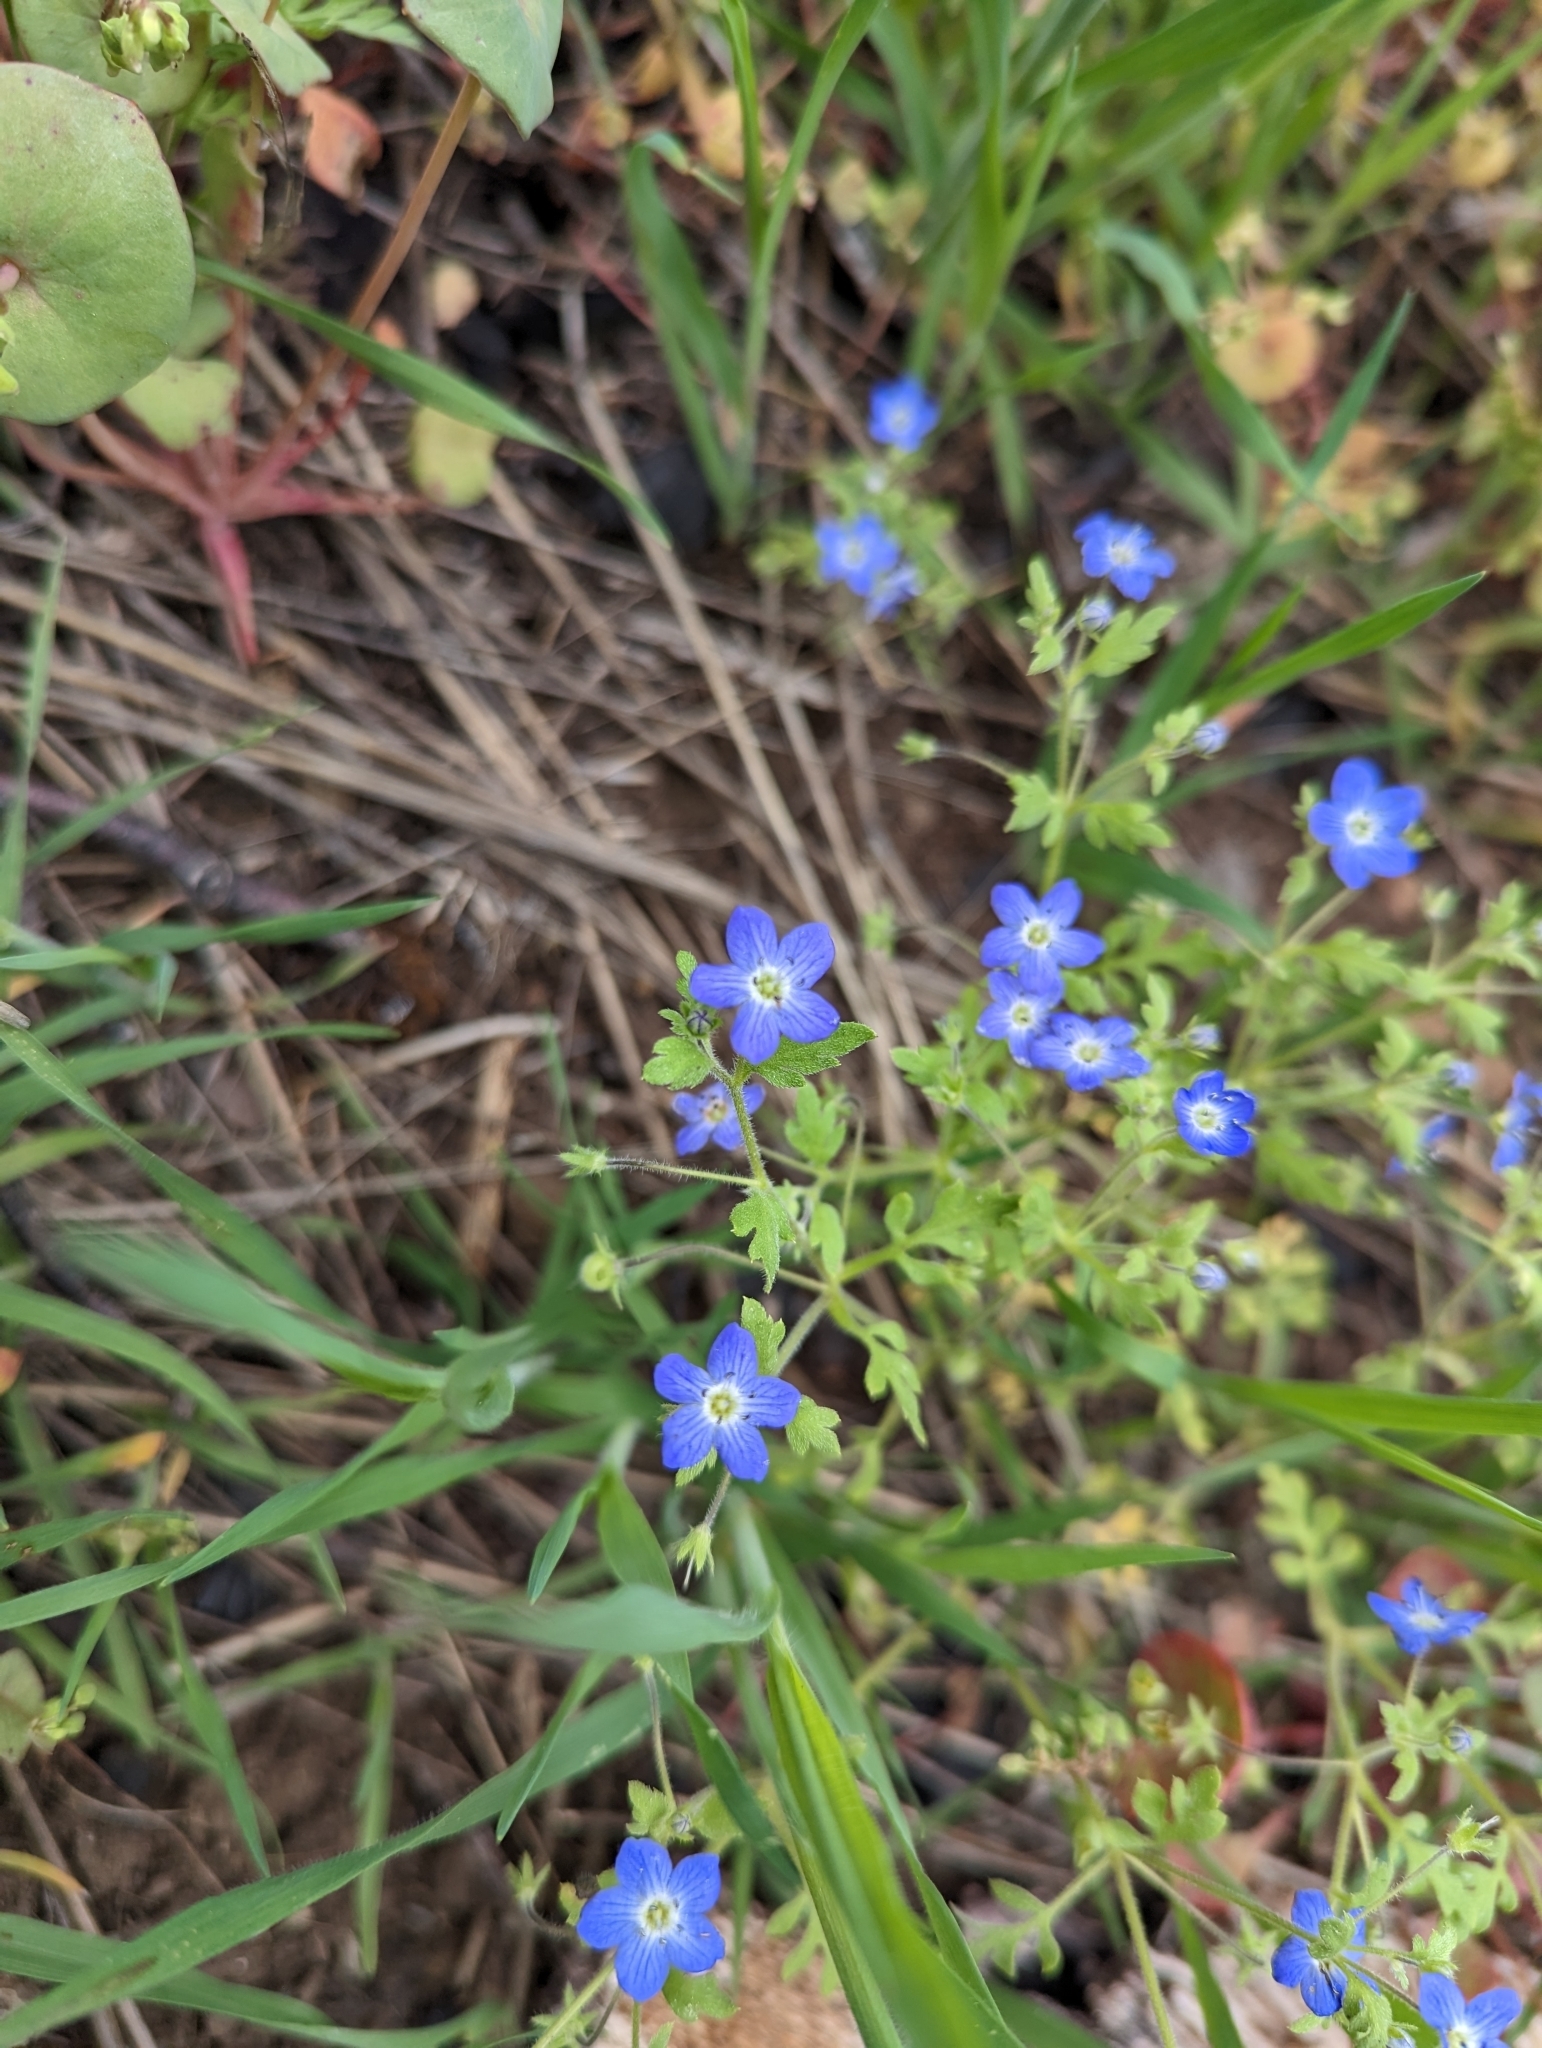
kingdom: Plantae
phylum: Tracheophyta
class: Magnoliopsida
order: Boraginales
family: Hydrophyllaceae
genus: Nemophila
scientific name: Nemophila menziesii
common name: Baby's-blue-eyes
